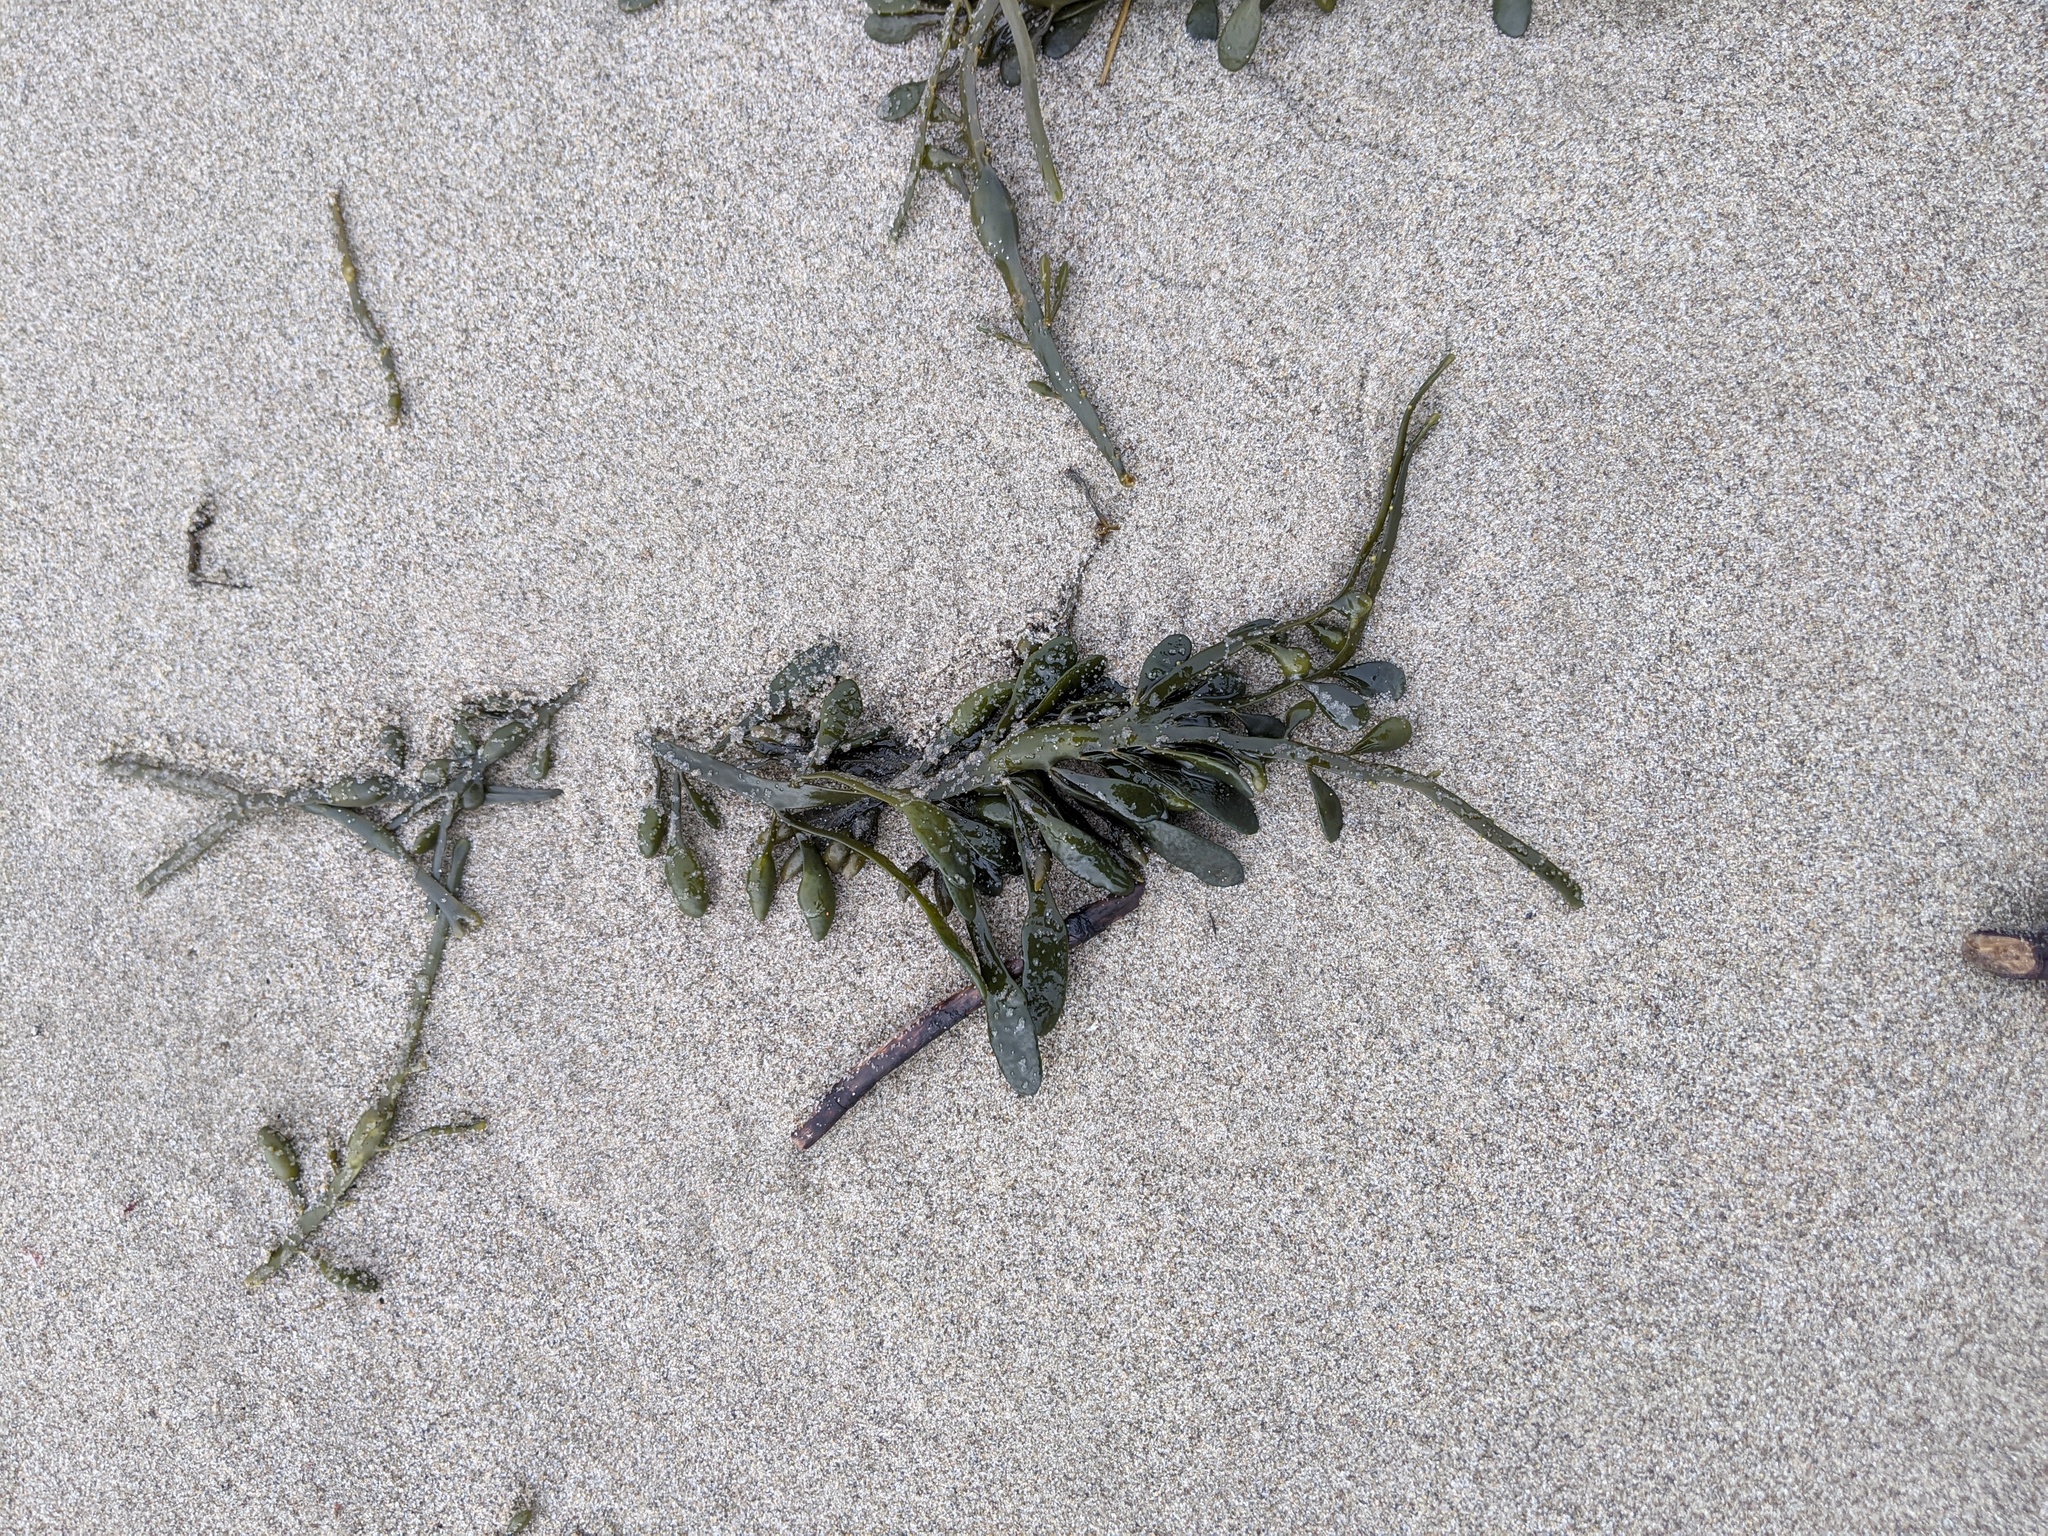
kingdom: Chromista
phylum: Ochrophyta
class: Phaeophyceae
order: Fucales
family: Fucaceae
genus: Ascophyllum
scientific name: Ascophyllum nodosum
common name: Knotted wrack
